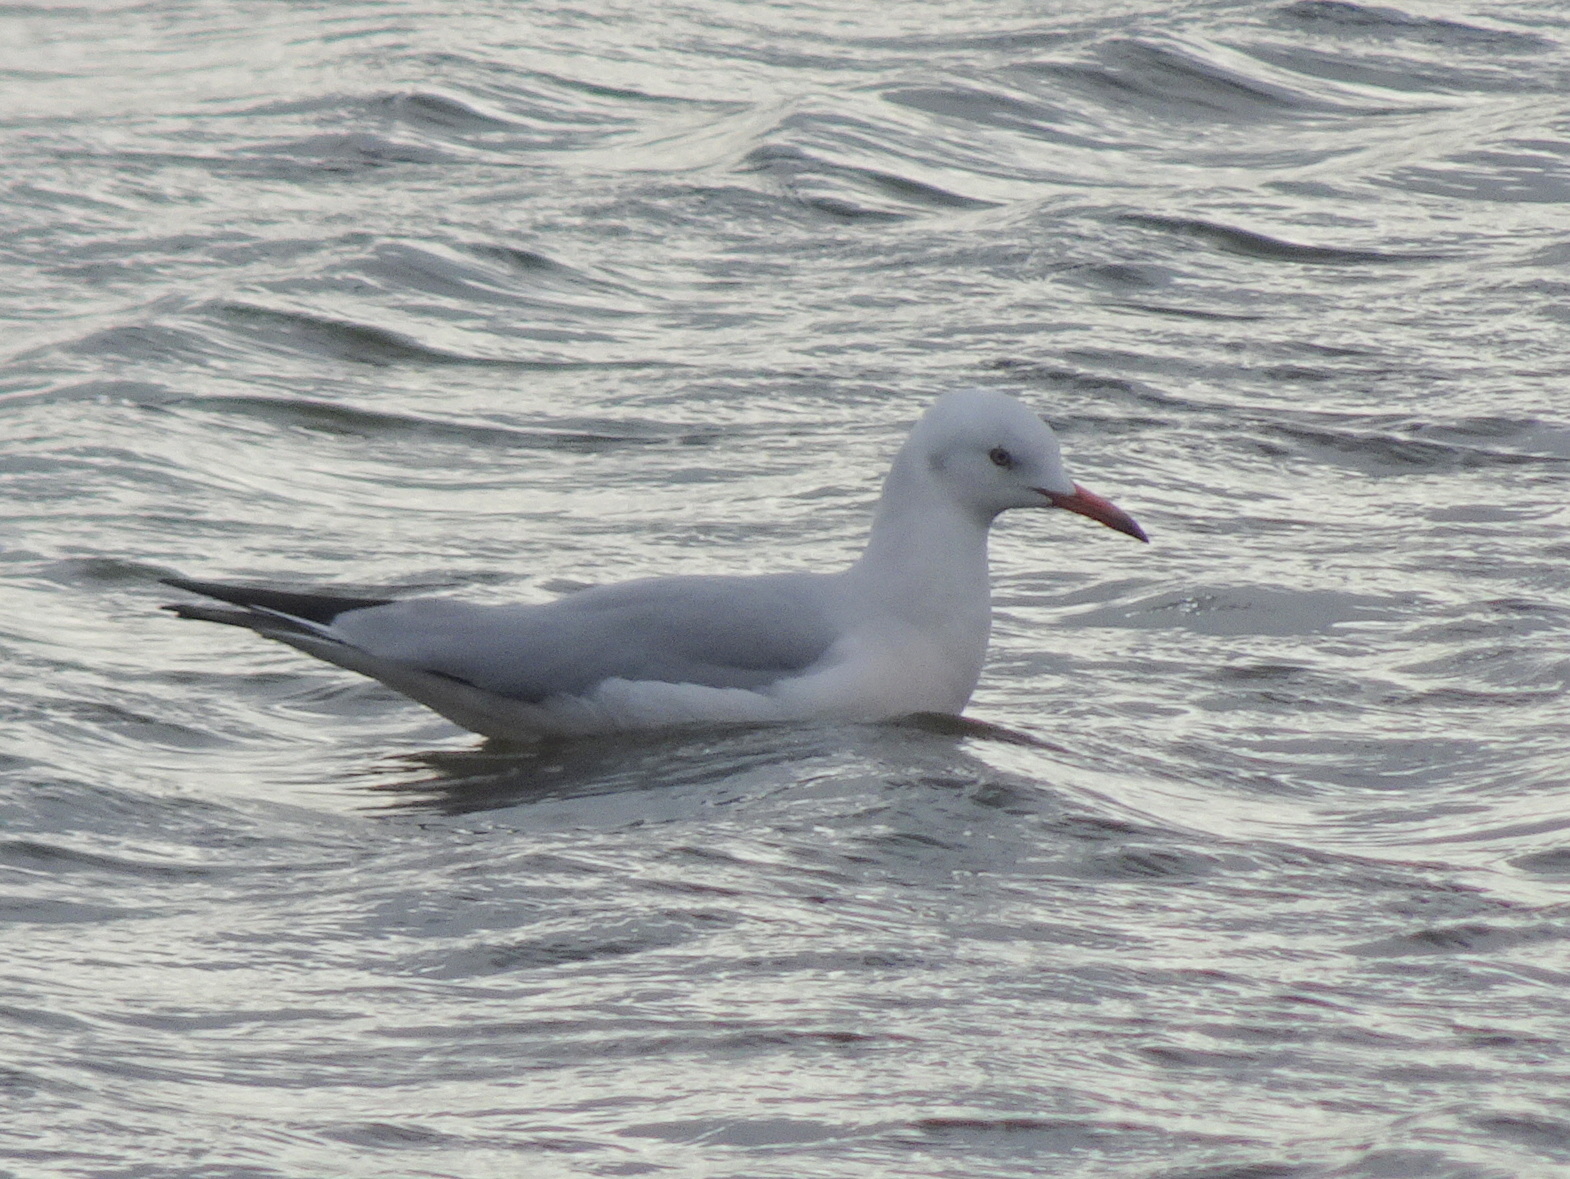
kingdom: Animalia
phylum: Chordata
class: Aves
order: Charadriiformes
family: Laridae
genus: Chroicocephalus
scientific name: Chroicocephalus genei
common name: Slender-billed gull
